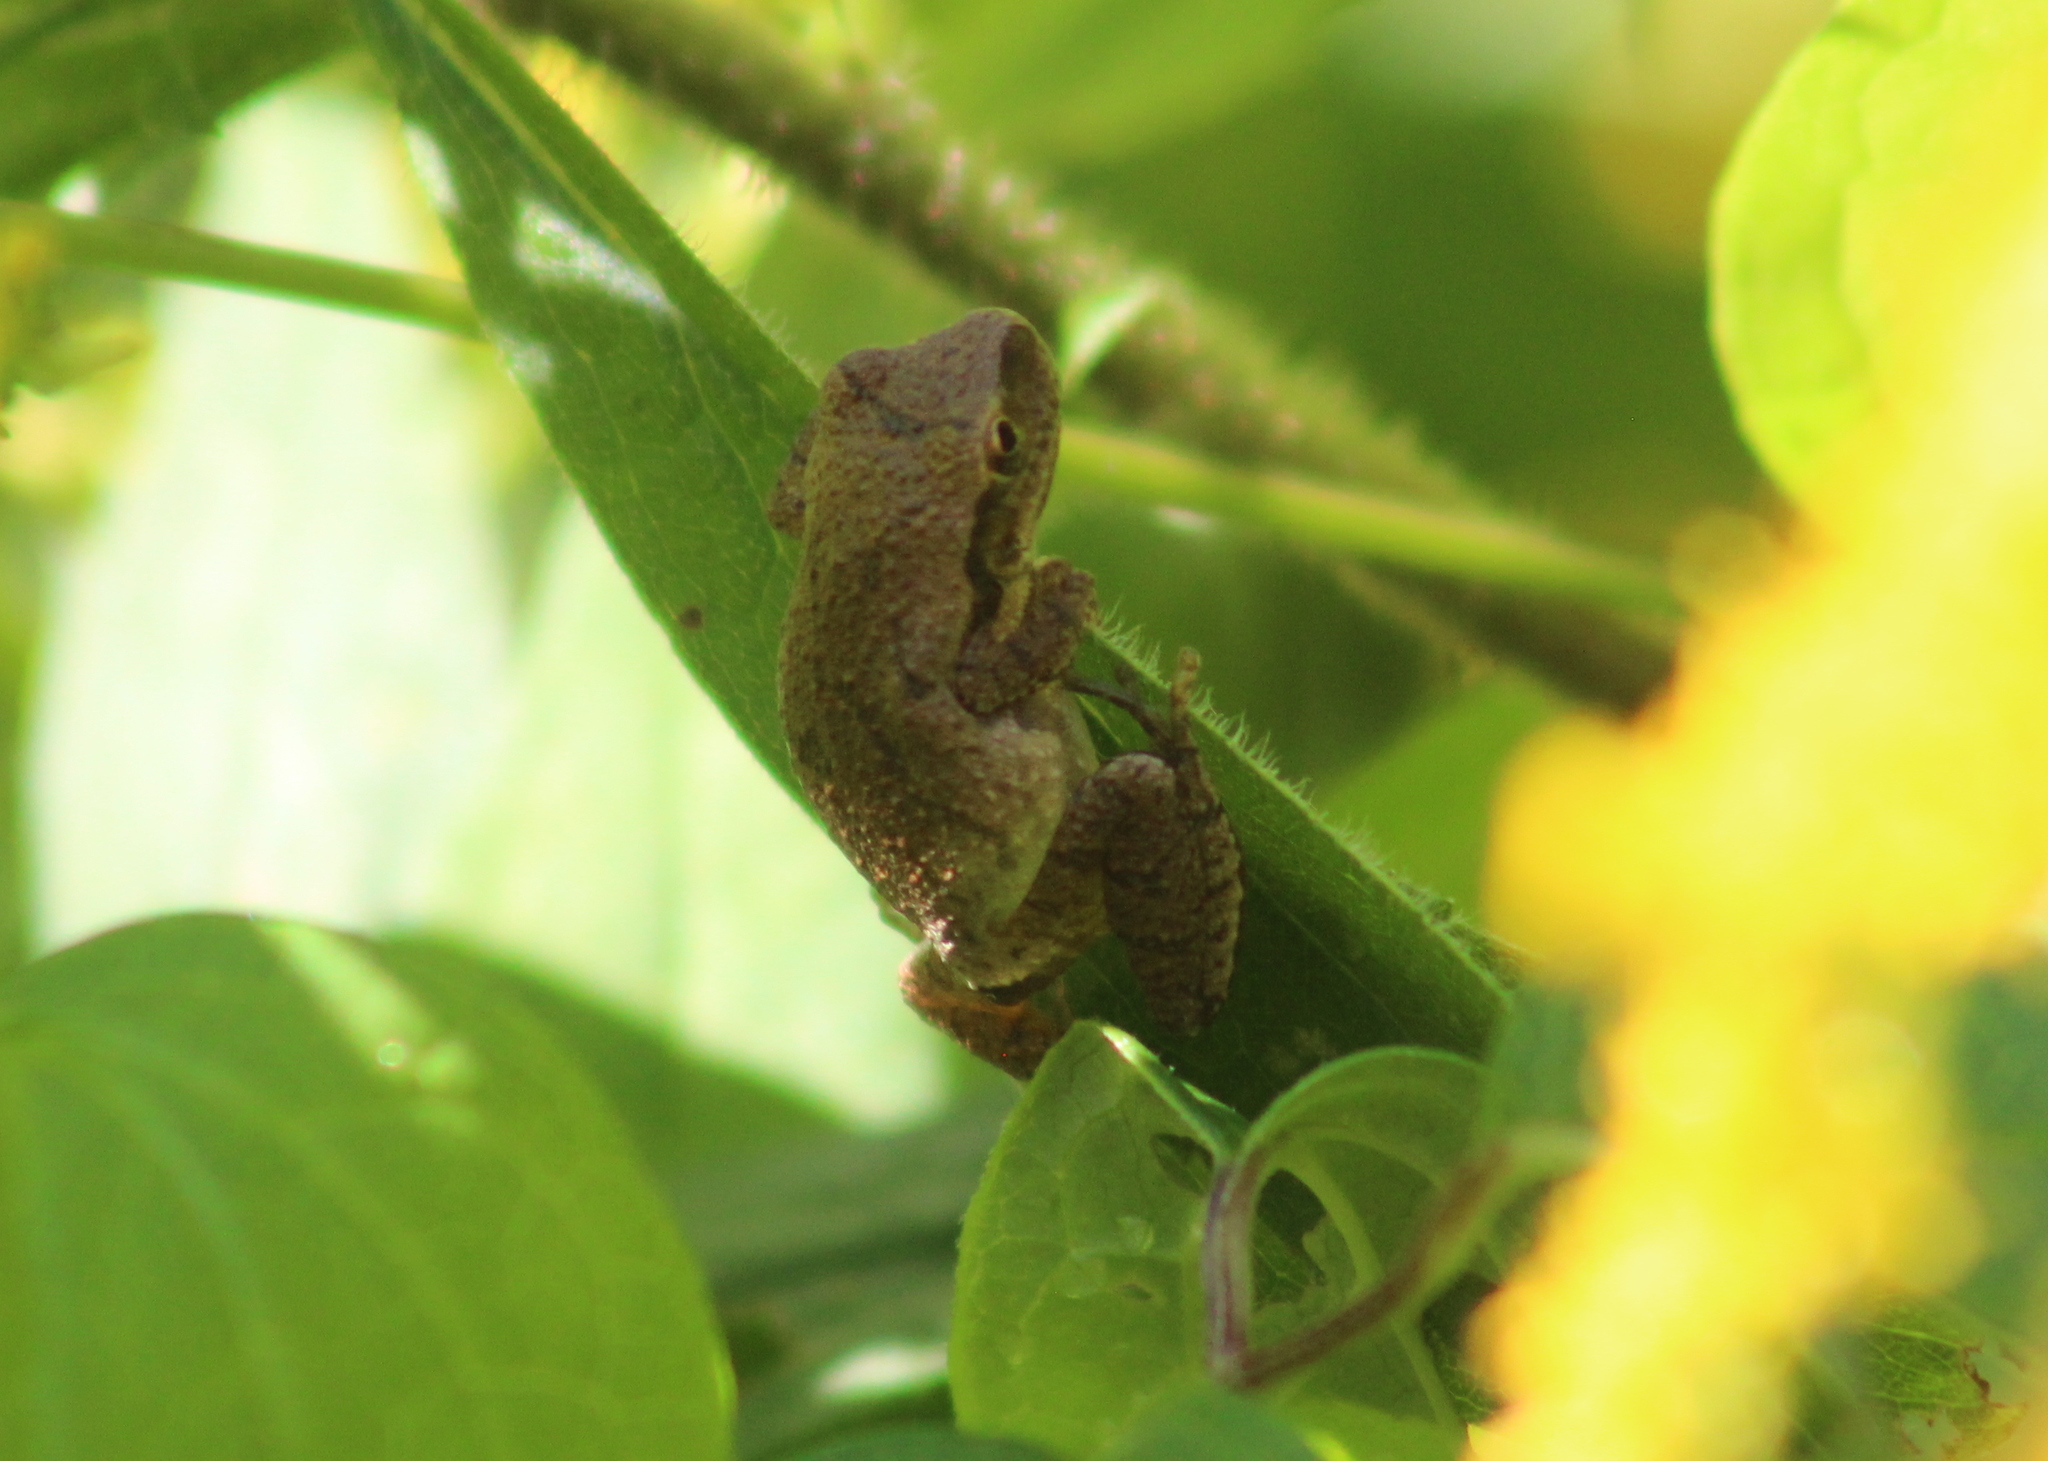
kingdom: Animalia
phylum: Chordata
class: Amphibia
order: Anura
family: Hylidae
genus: Pseudacris
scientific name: Pseudacris crucifer
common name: Spring peeper
